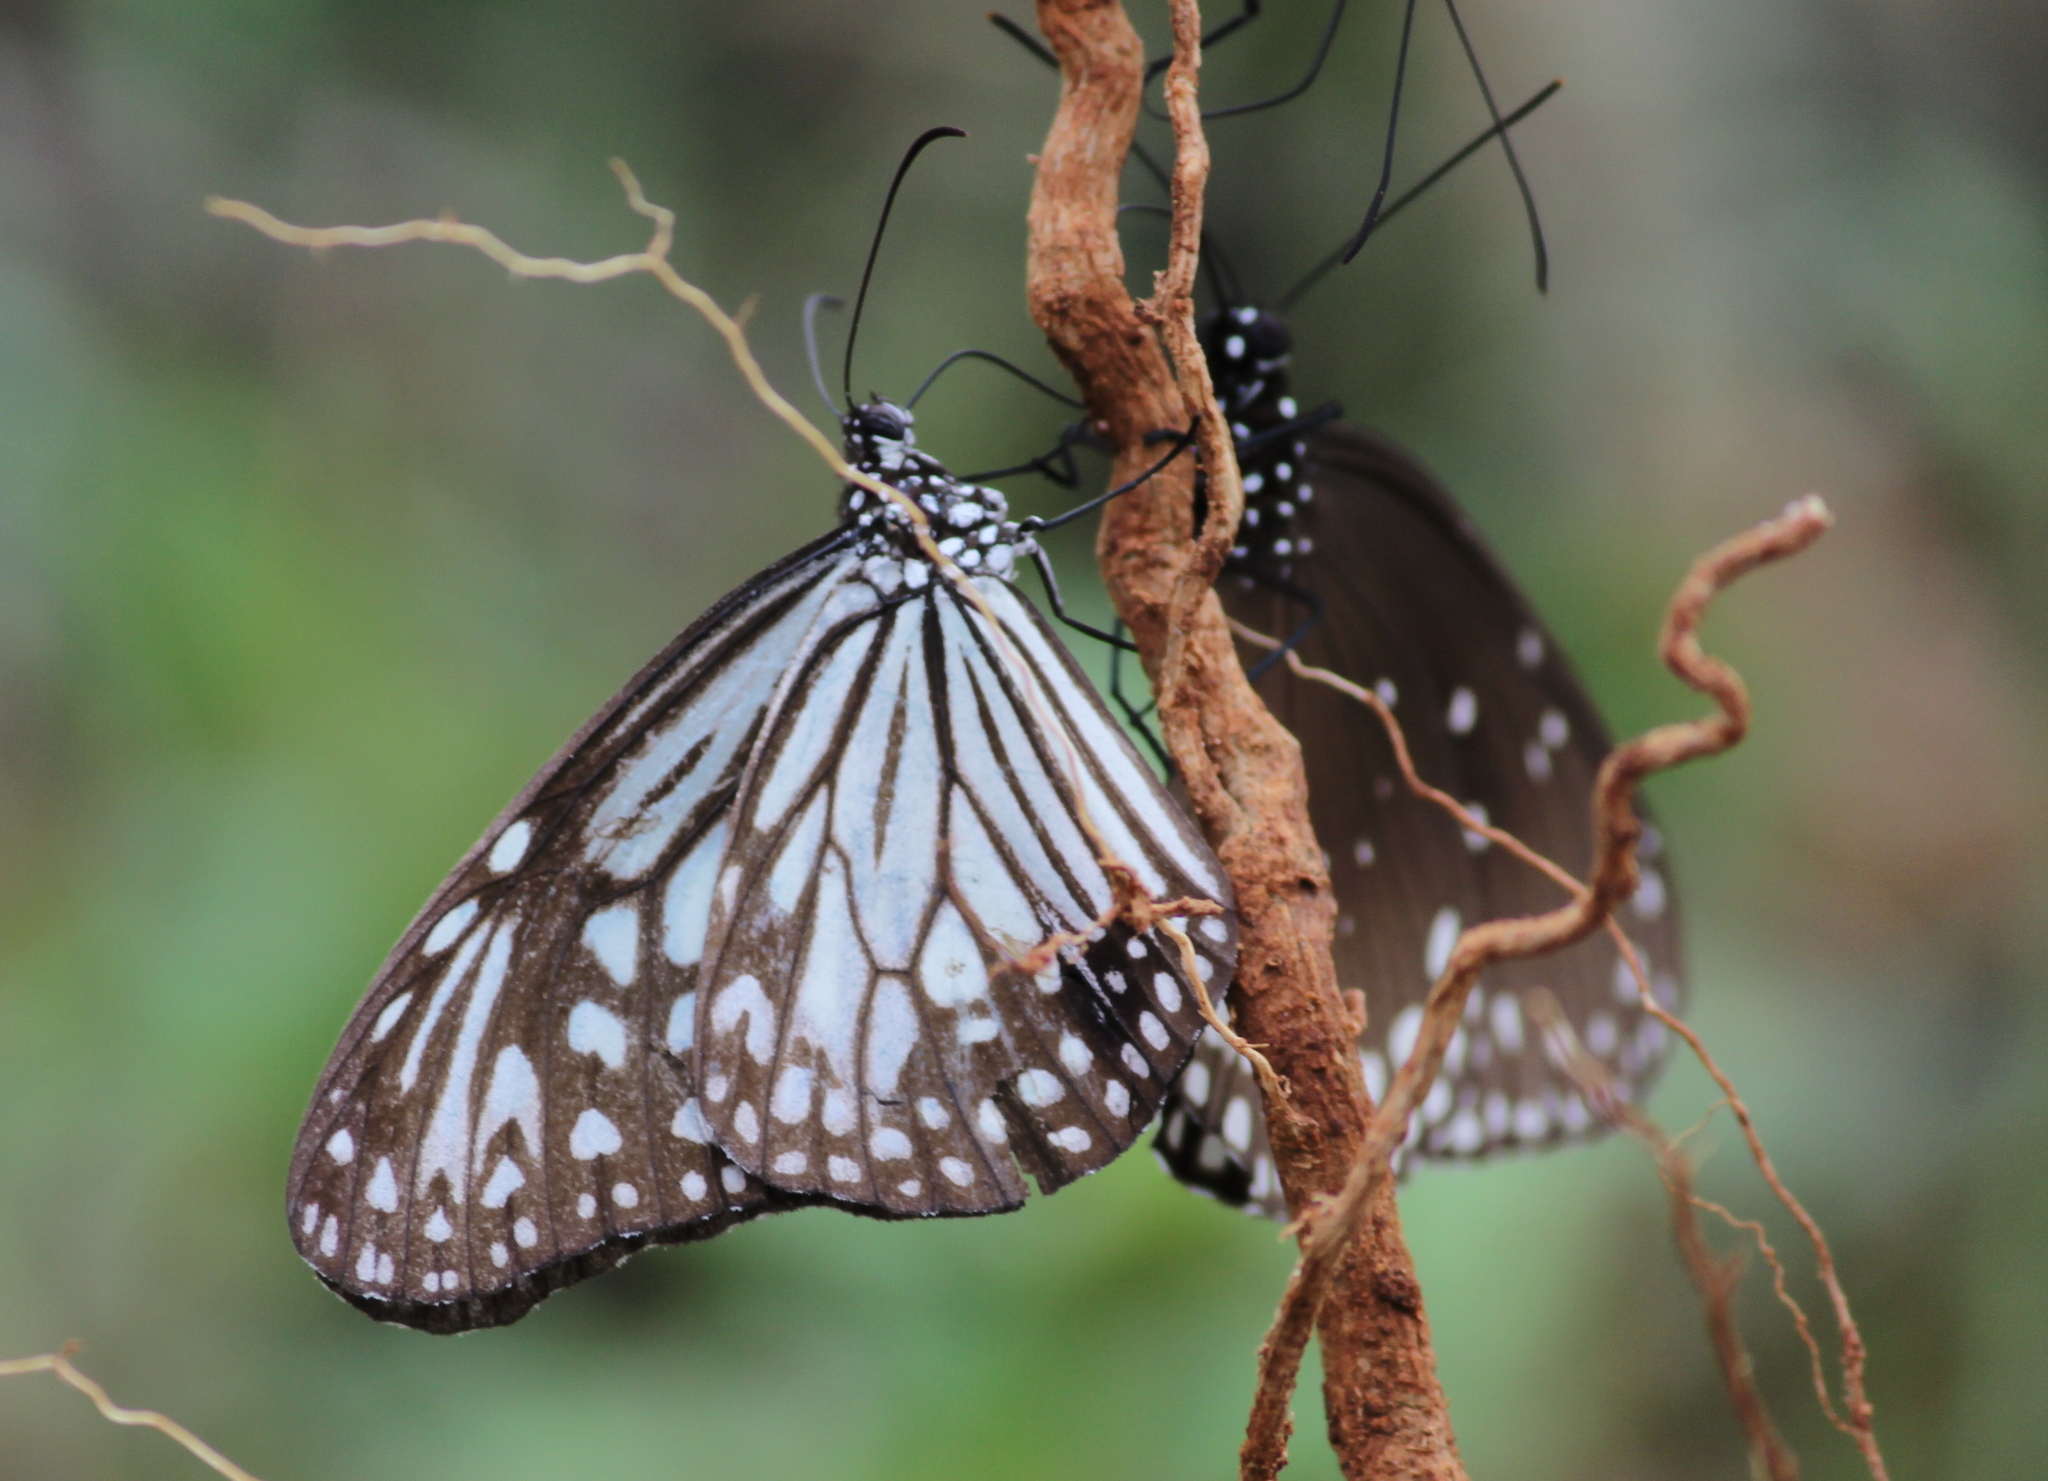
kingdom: Animalia
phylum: Arthropoda
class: Insecta
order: Lepidoptera
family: Nymphalidae
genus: Parantica
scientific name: Parantica aglea
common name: Glassy tiger
